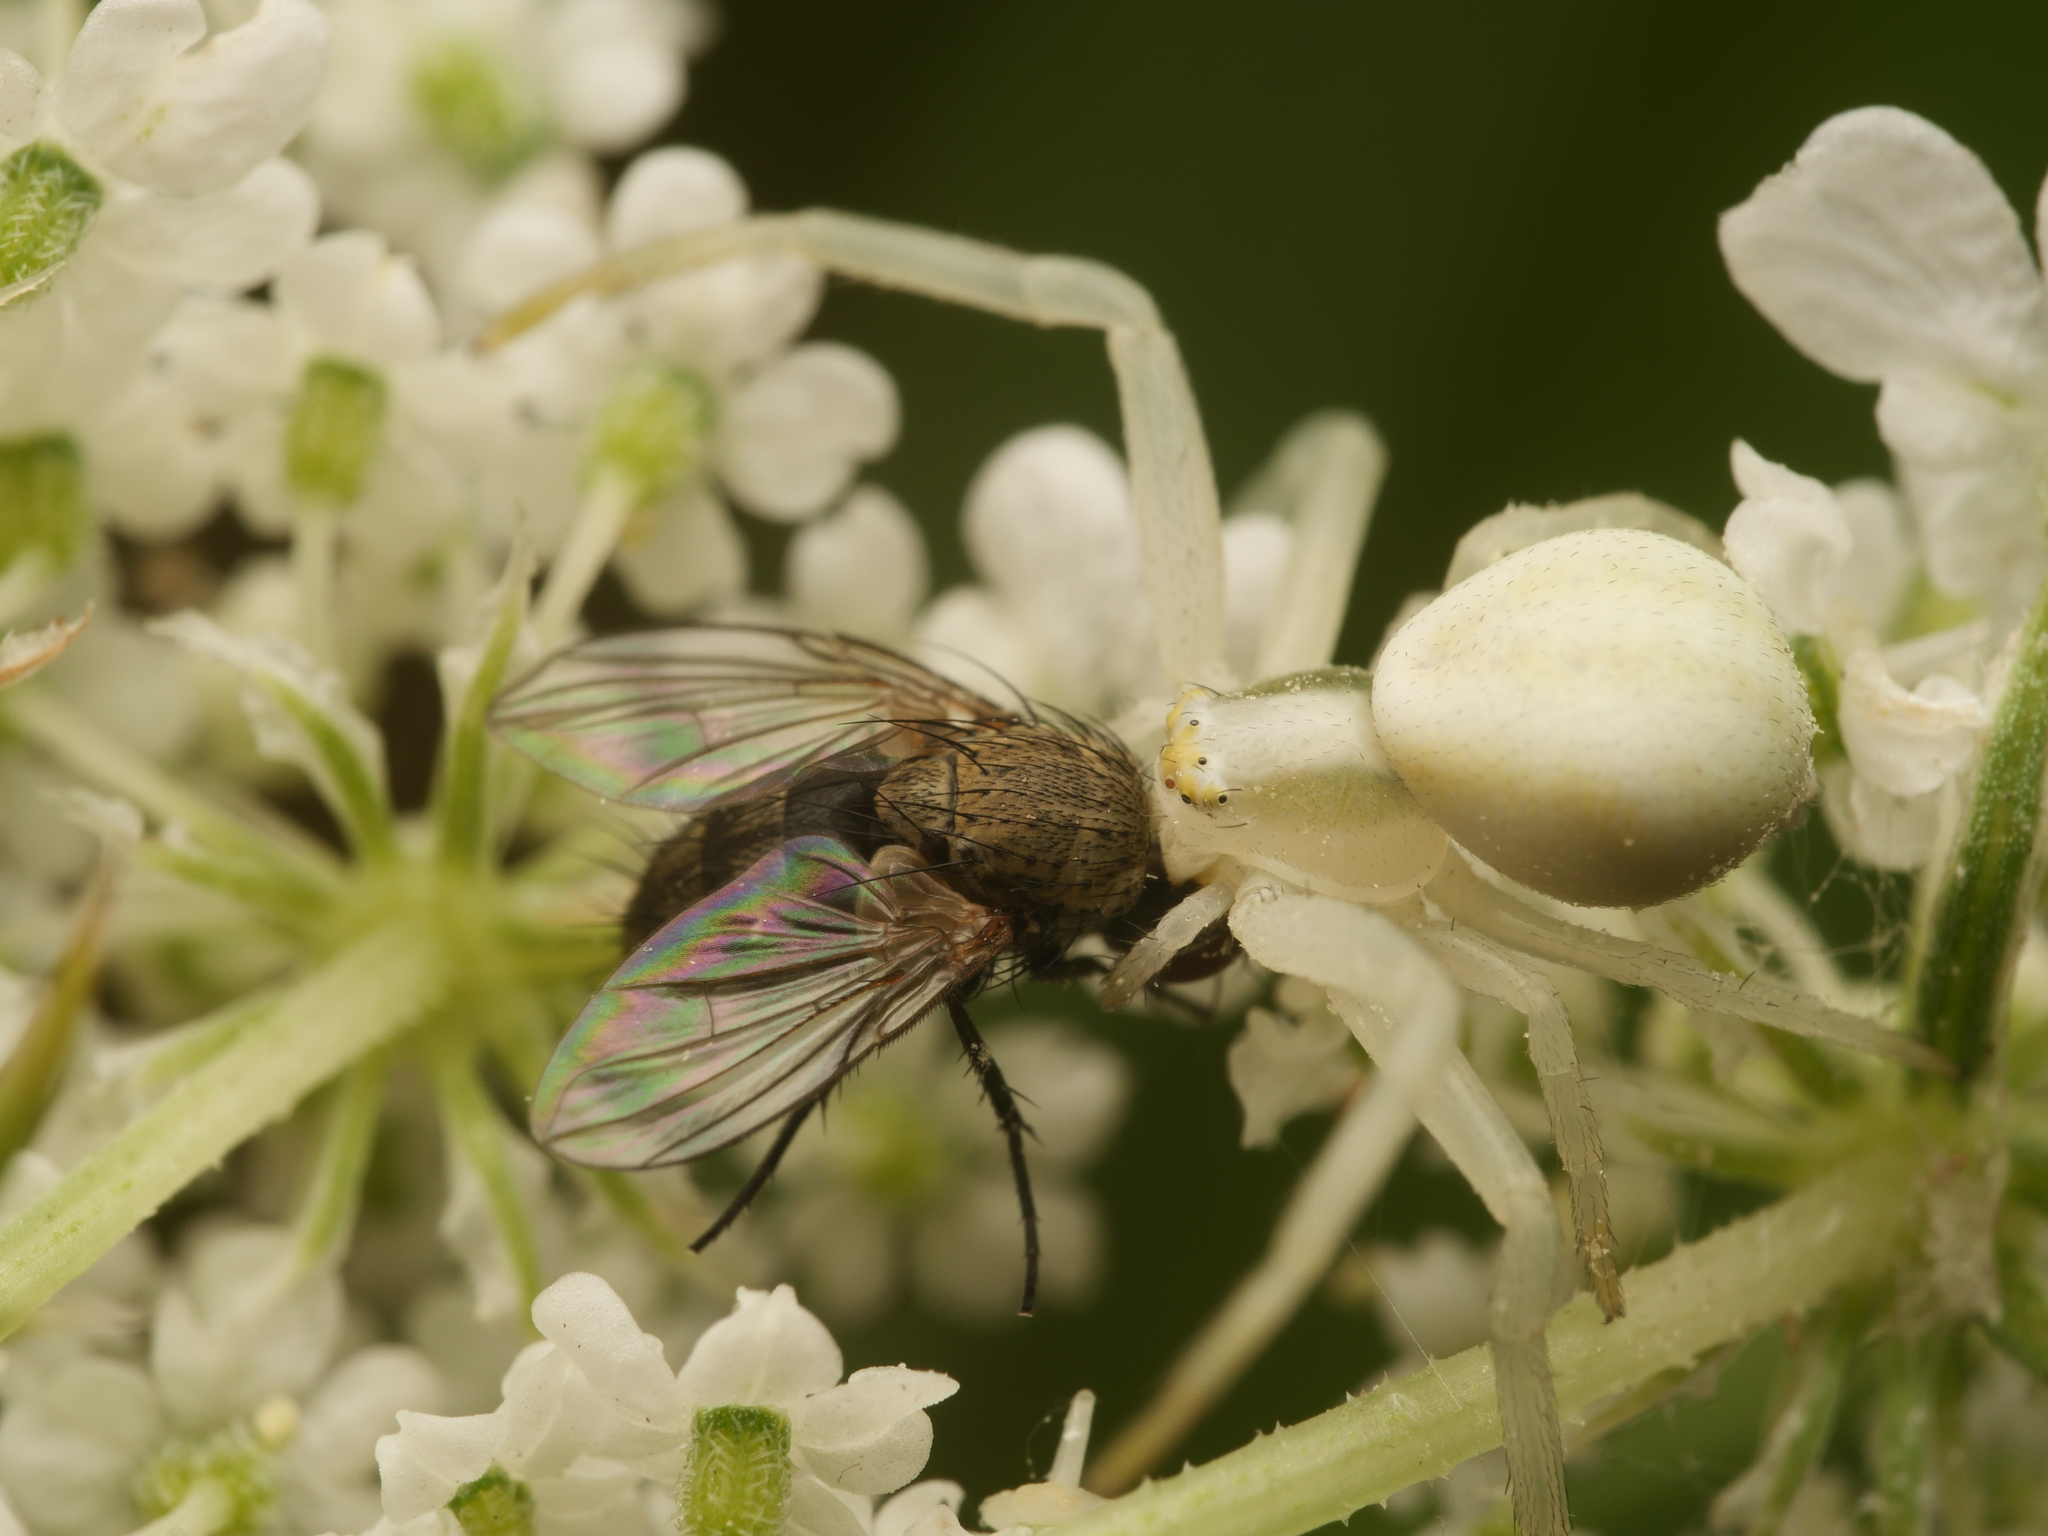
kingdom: Animalia
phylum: Arthropoda
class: Arachnida
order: Araneae
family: Thomisidae
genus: Misumena
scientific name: Misumena vatia
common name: Goldenrod crab spider
